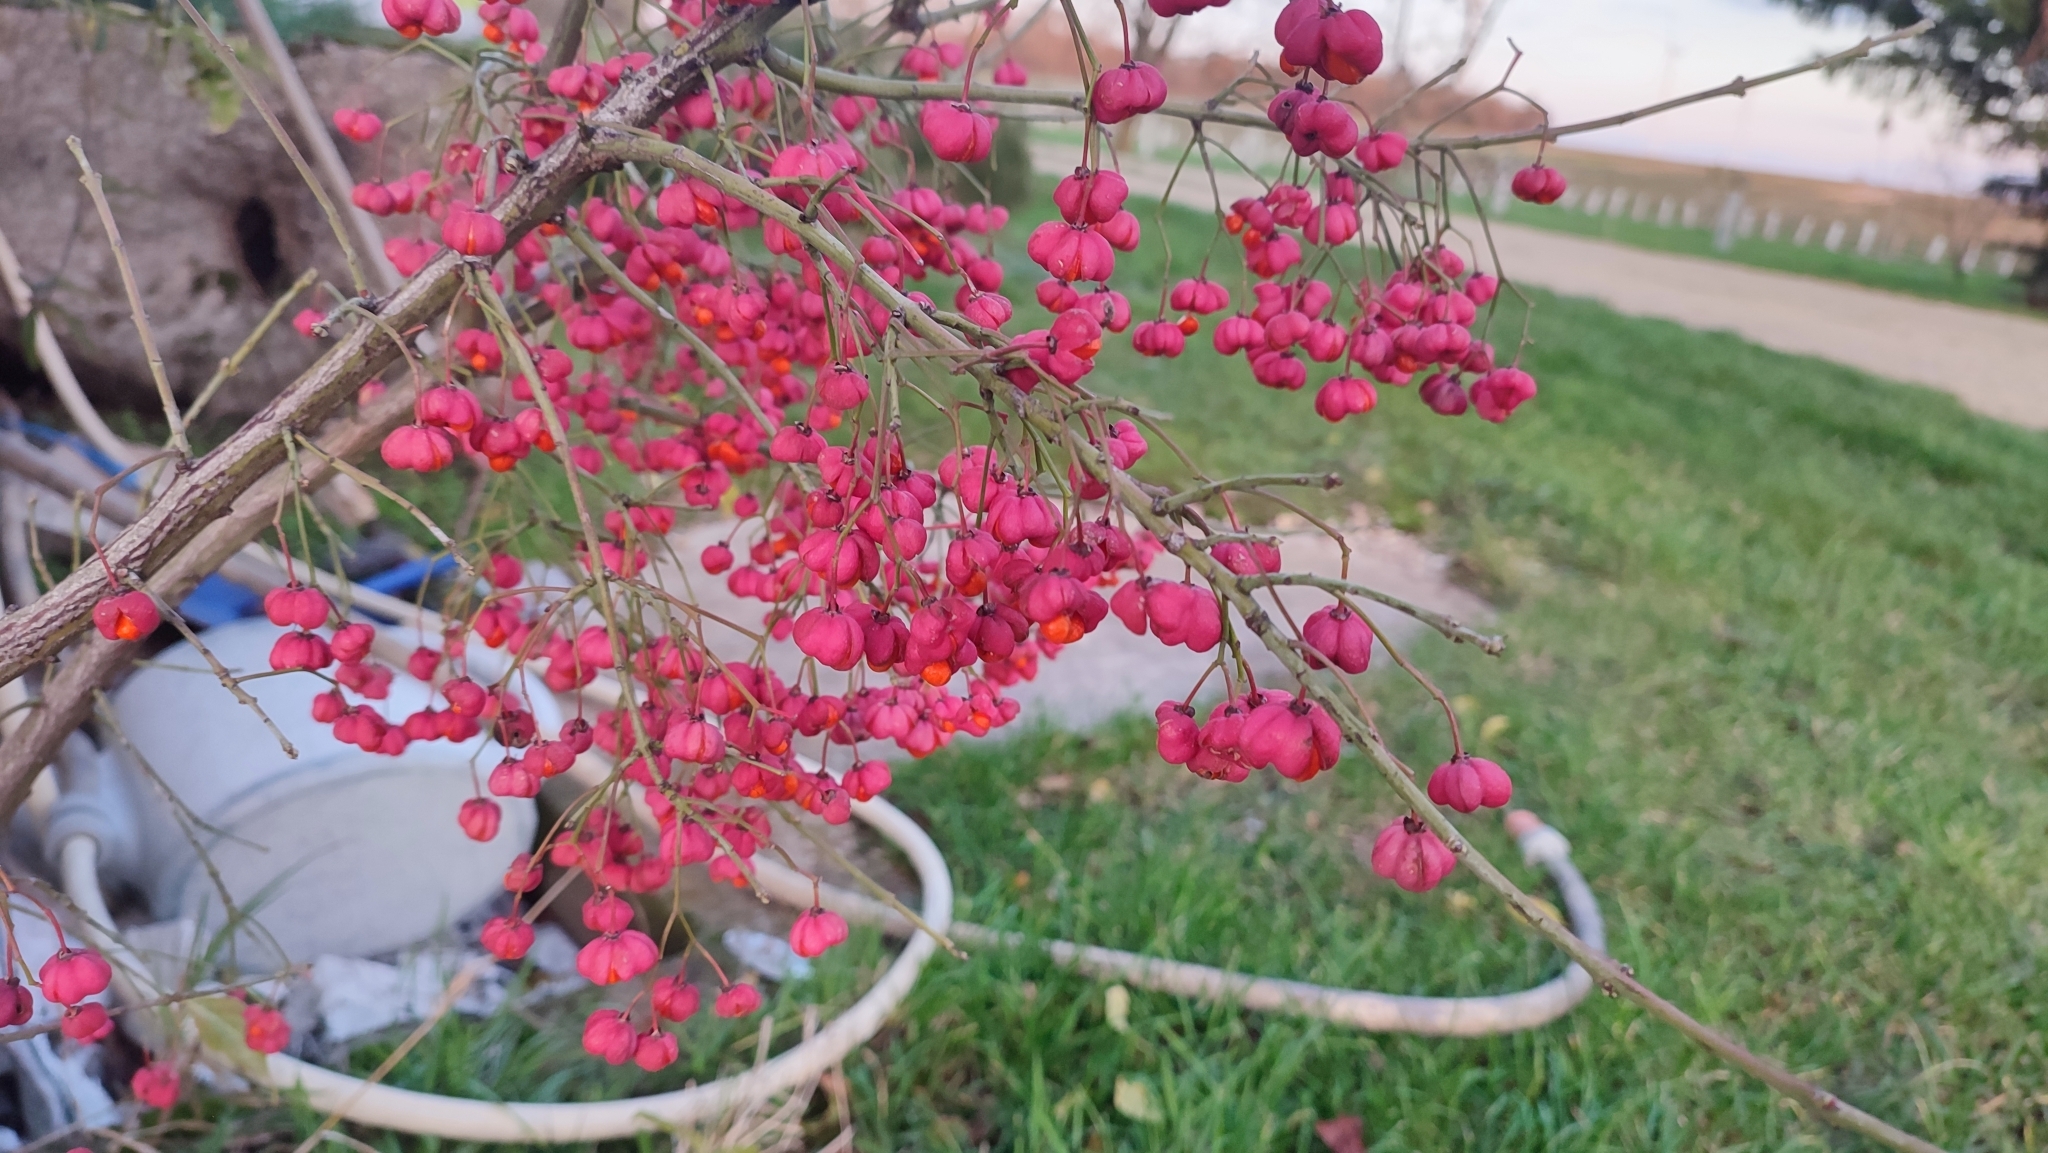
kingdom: Plantae
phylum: Tracheophyta
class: Magnoliopsida
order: Celastrales
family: Celastraceae
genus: Euonymus
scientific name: Euonymus europaeus
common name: Spindle
